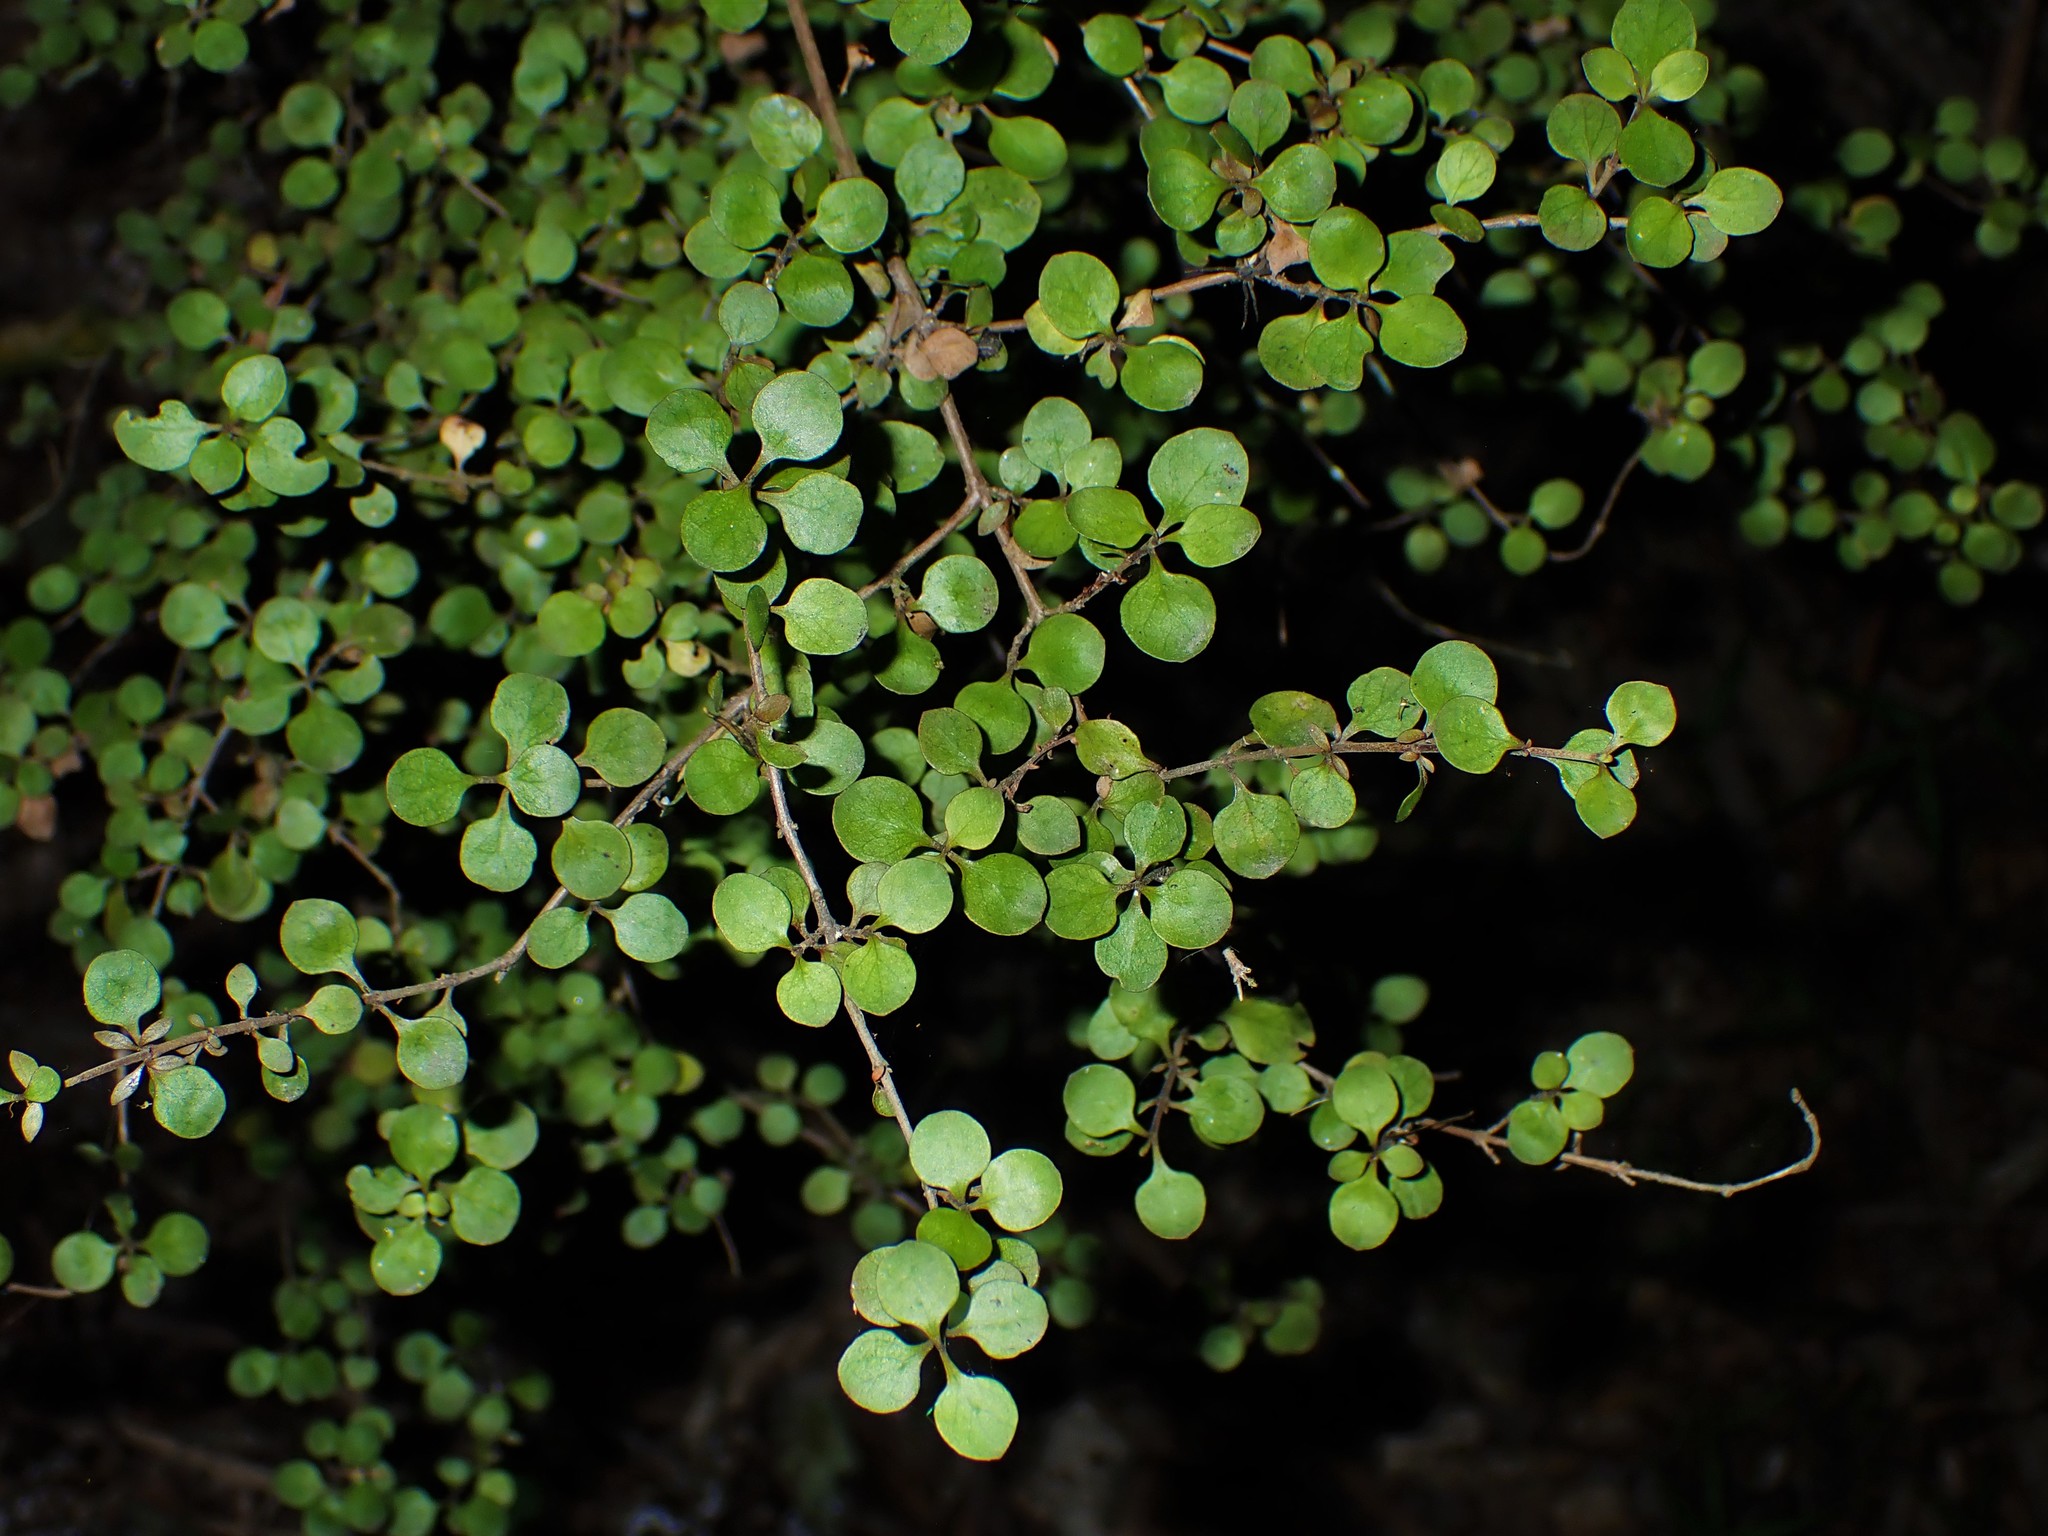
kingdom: Plantae
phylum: Tracheophyta
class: Magnoliopsida
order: Gentianales
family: Rubiaceae
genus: Coprosma
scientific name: Coprosma rhamnoides
